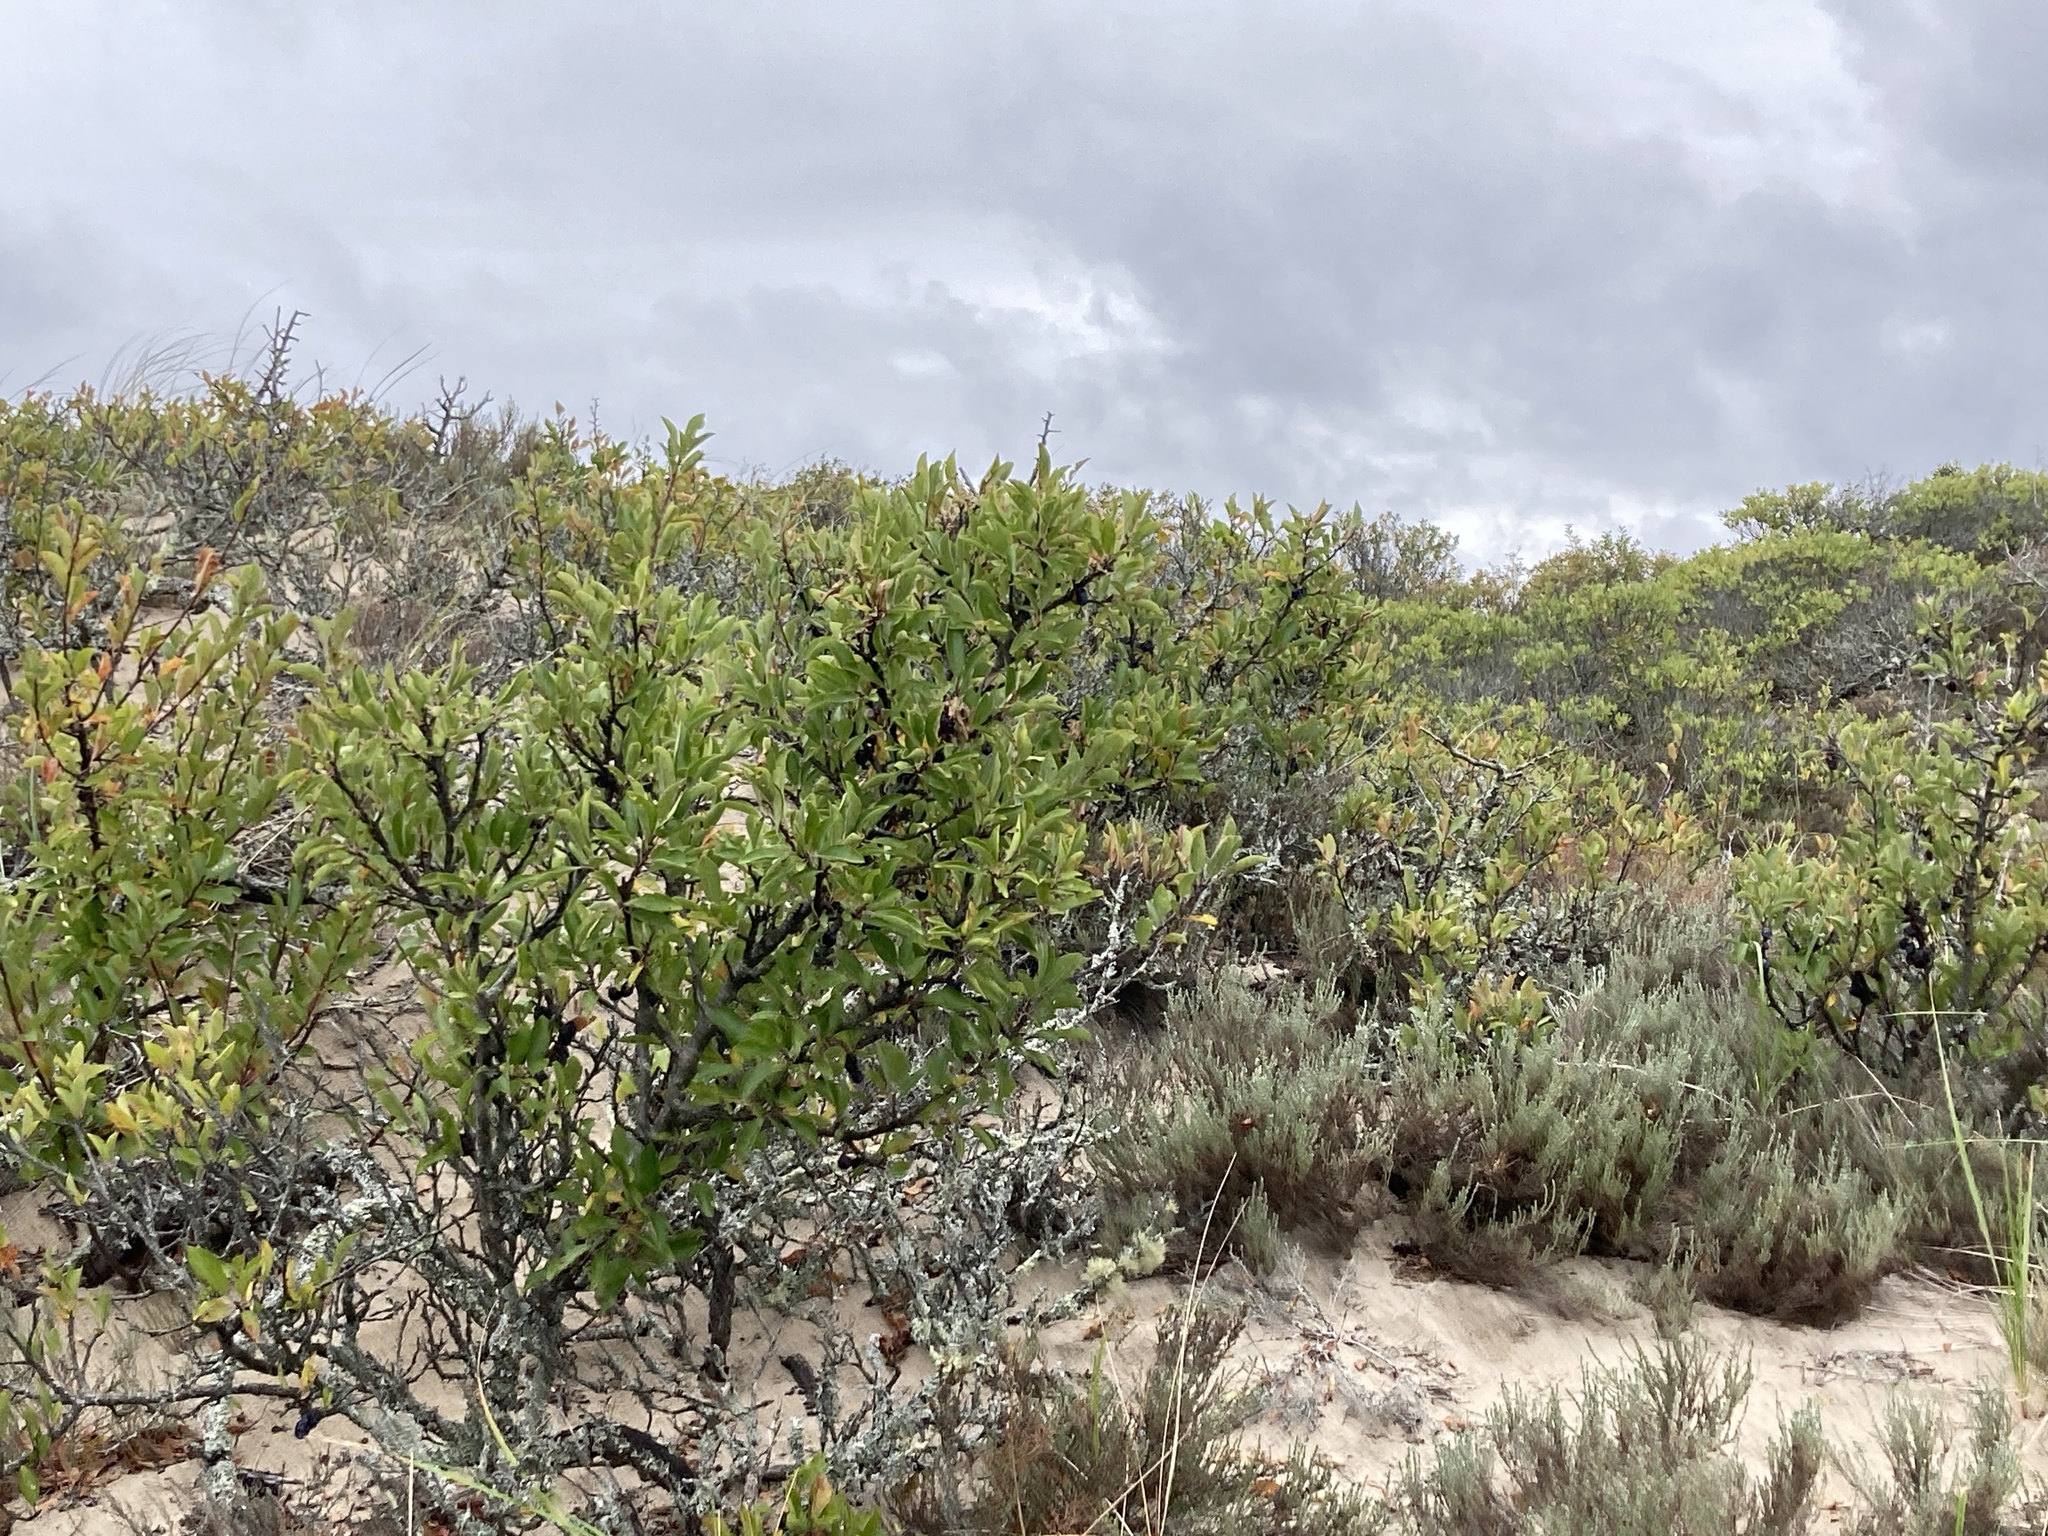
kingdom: Plantae
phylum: Tracheophyta
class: Magnoliopsida
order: Rosales
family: Rosaceae
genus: Prunus
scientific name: Prunus maritima
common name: Beach plum
